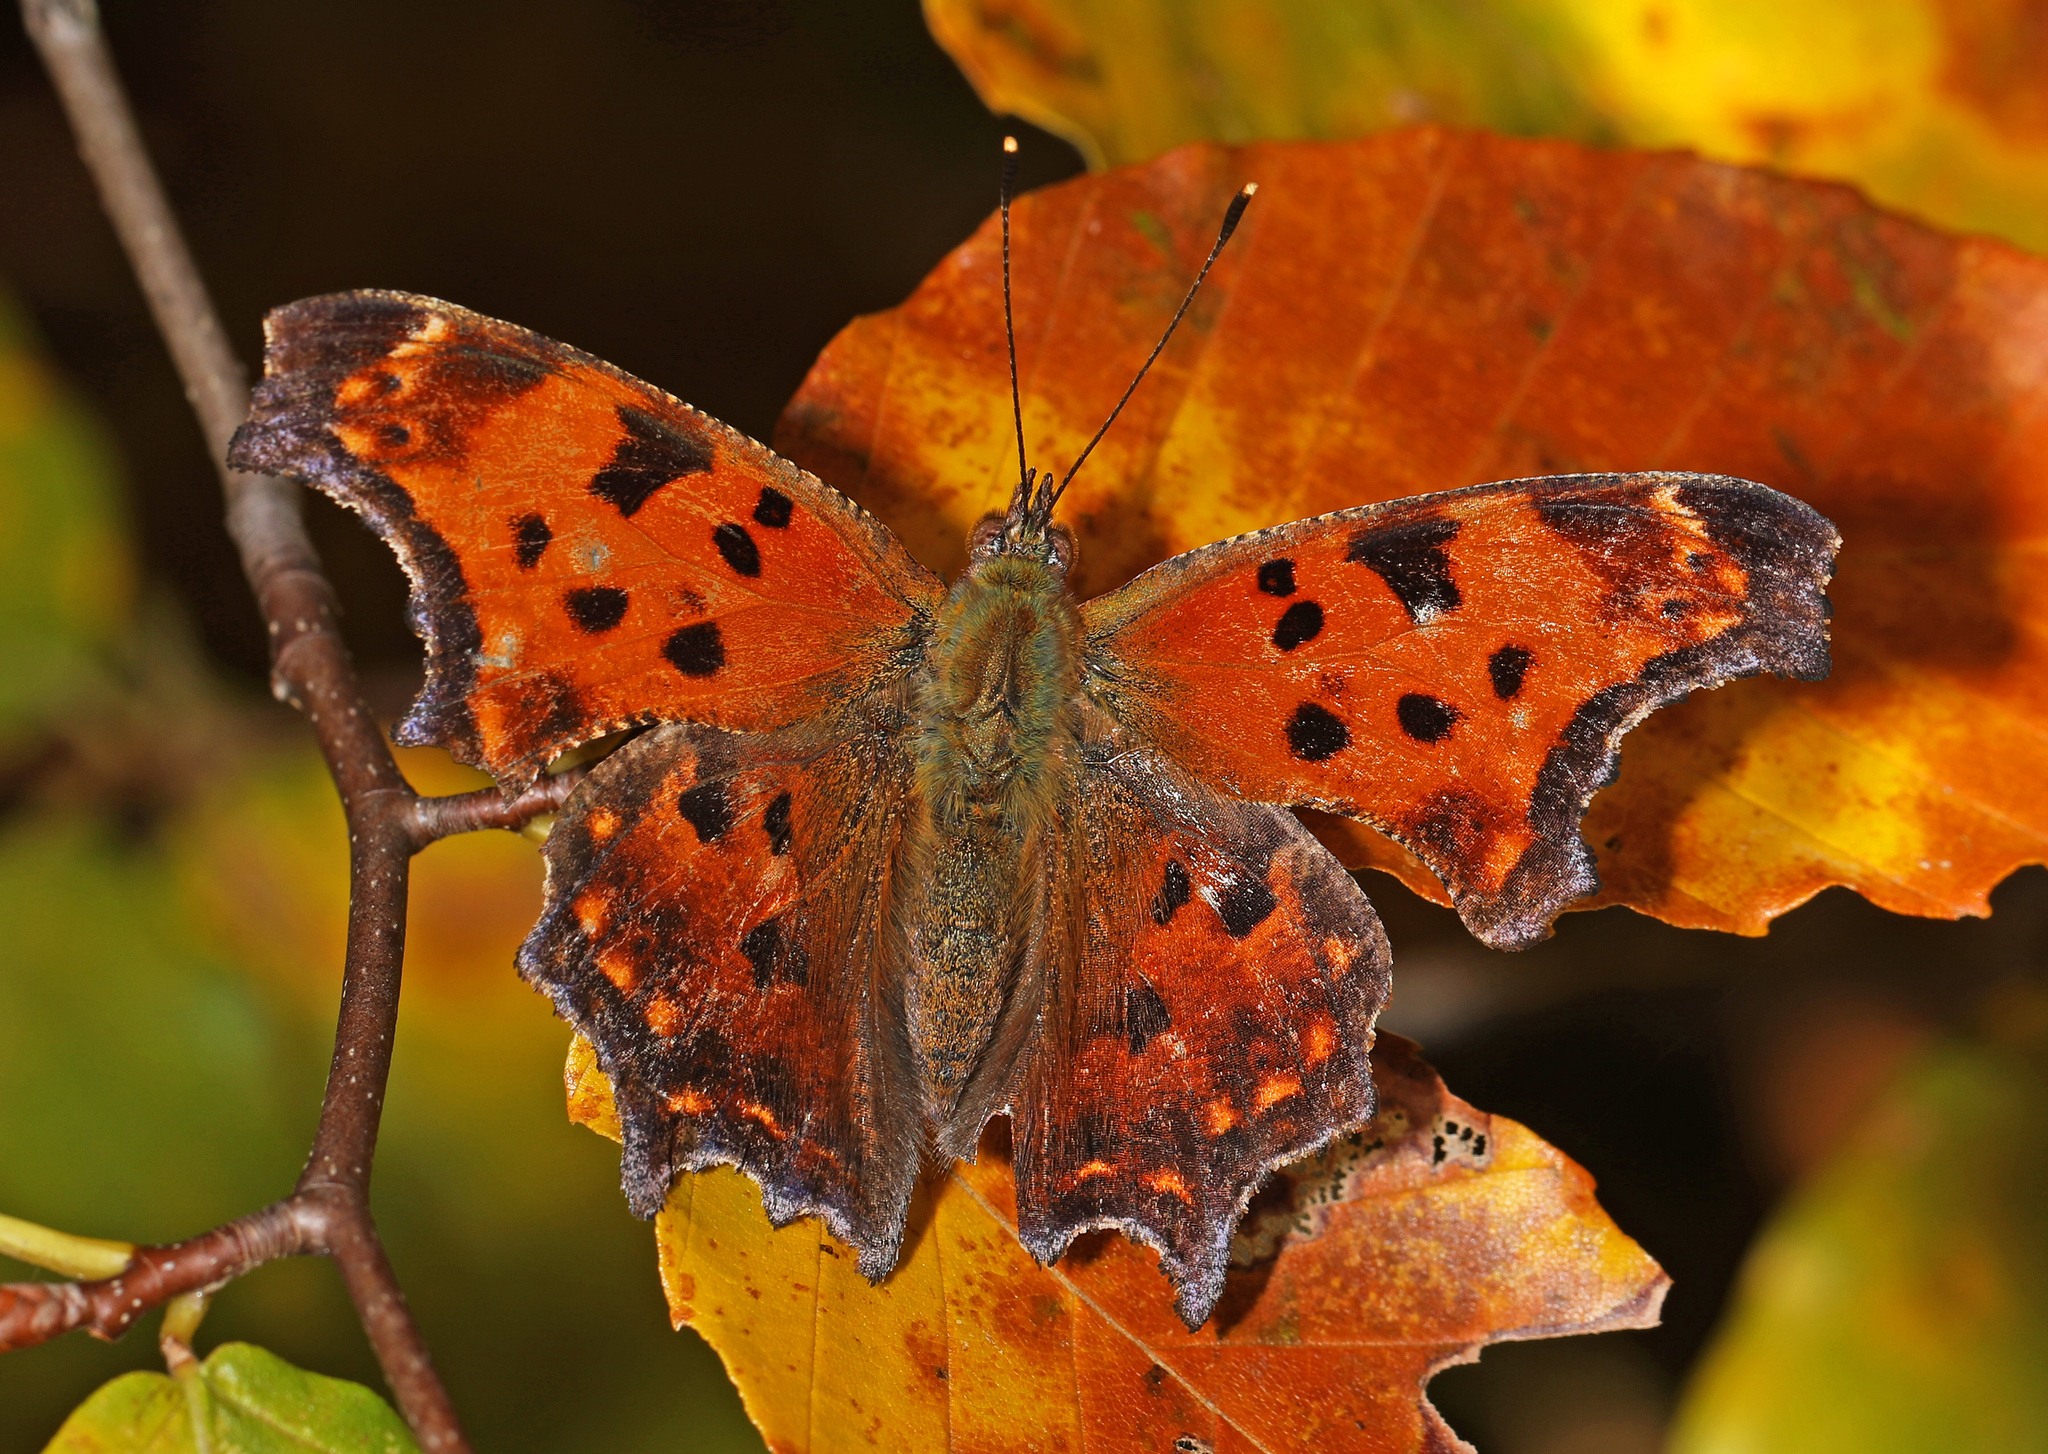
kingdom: Animalia
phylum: Arthropoda
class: Insecta
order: Lepidoptera
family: Nymphalidae
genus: Polygonia
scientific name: Polygonia comma
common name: Eastern comma
